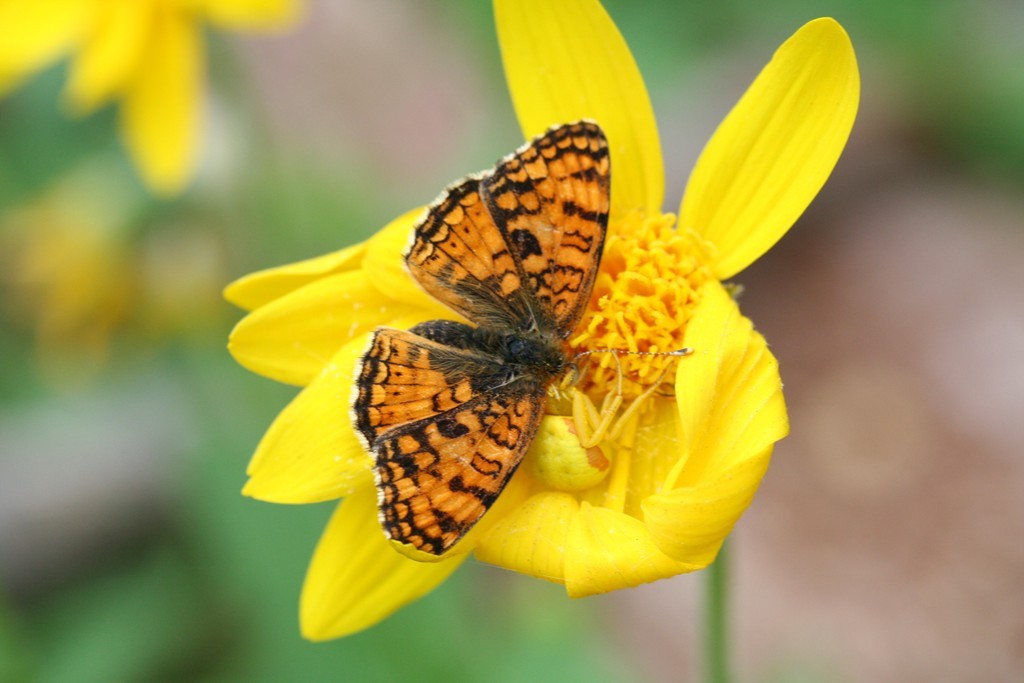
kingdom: Animalia
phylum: Arthropoda
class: Insecta
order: Lepidoptera
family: Nymphalidae
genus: Phyciodes
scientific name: Phyciodes pallida
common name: Pale crescent
